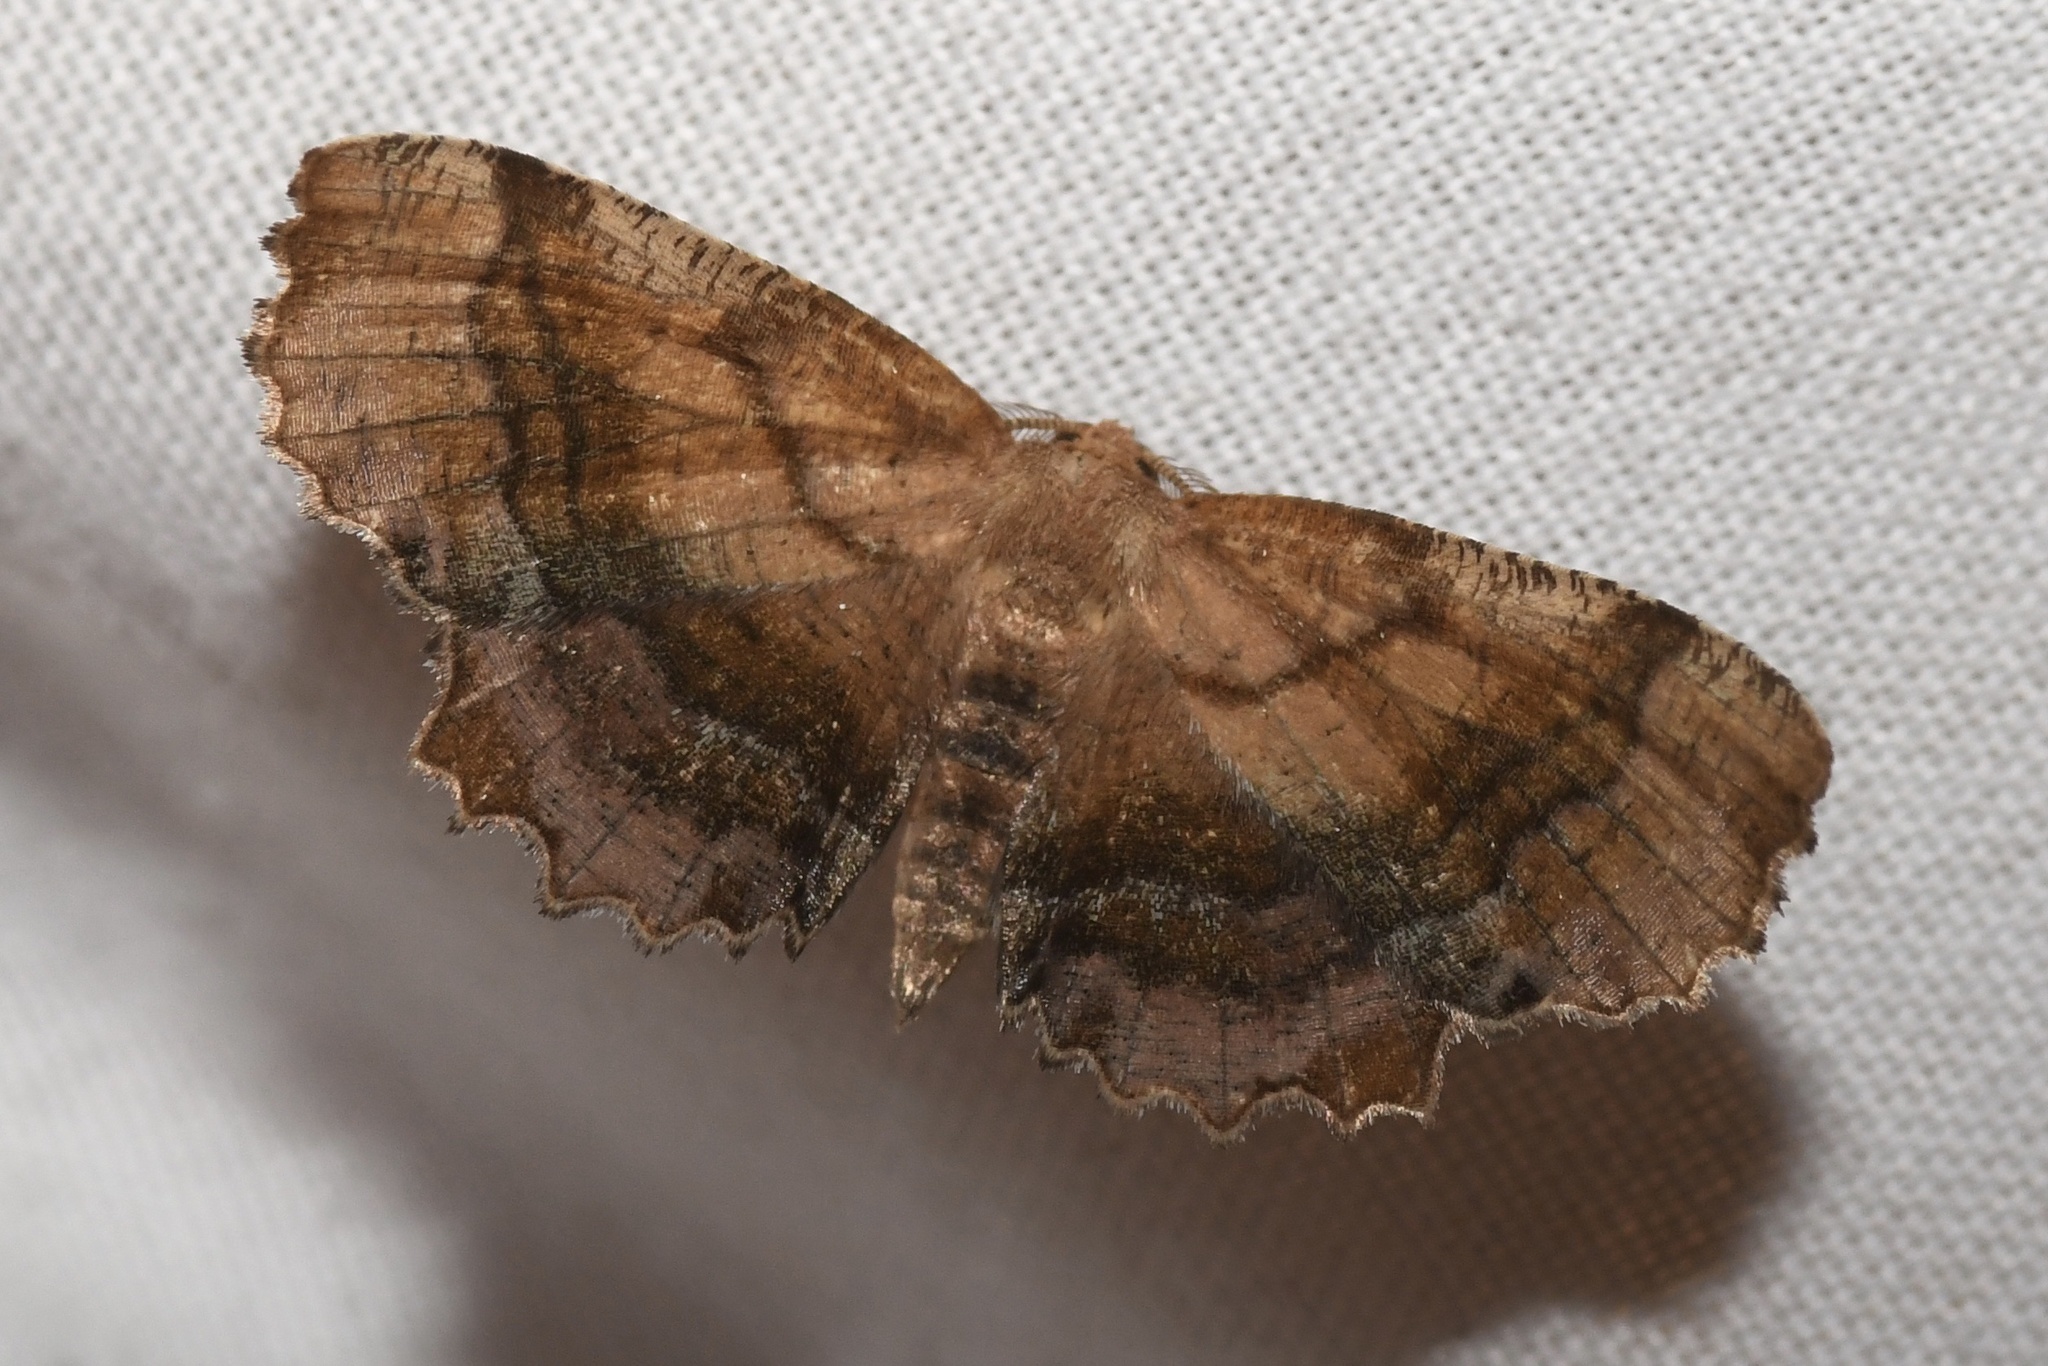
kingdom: Animalia
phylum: Arthropoda
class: Insecta
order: Lepidoptera
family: Geometridae
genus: Cepphis
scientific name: Cepphis armataria
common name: Scallop moth
